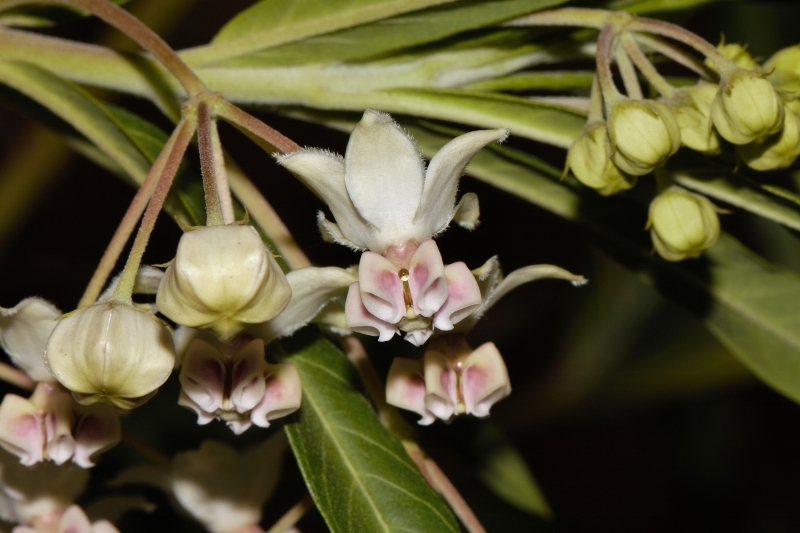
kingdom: Plantae
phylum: Tracheophyta
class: Magnoliopsida
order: Gentianales
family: Apocynaceae
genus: Gomphocarpus
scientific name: Gomphocarpus physocarpus
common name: Balloon cotton bush
